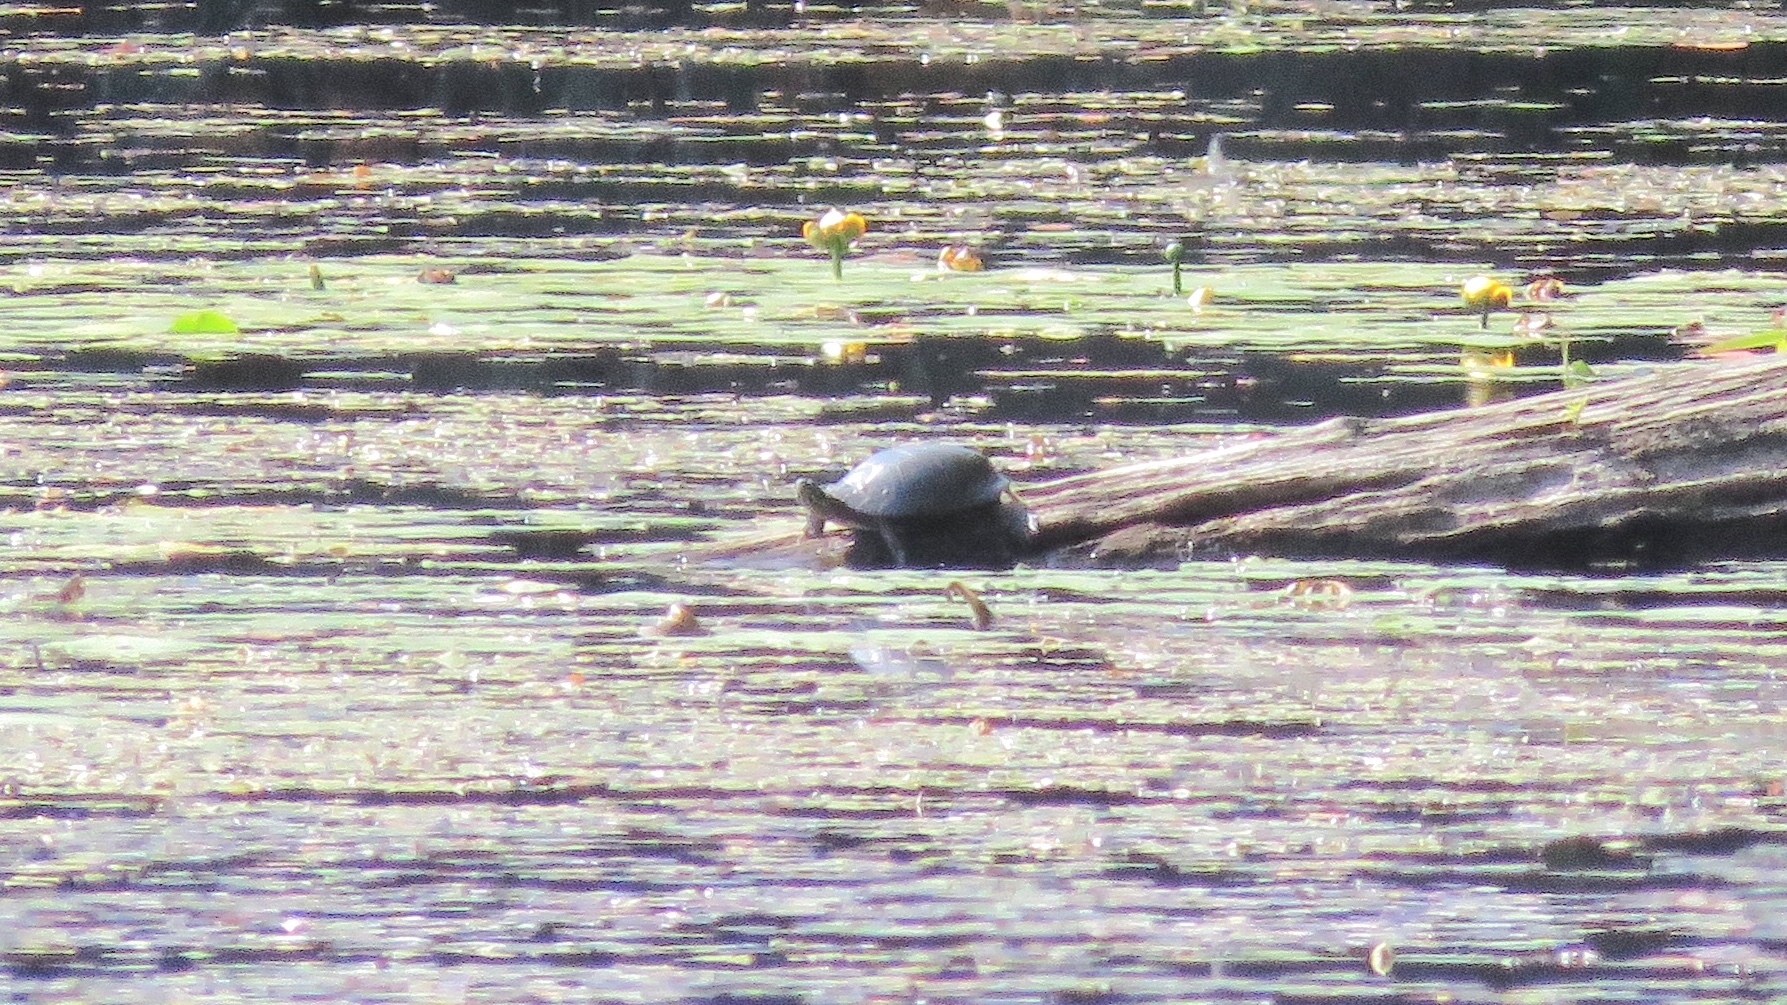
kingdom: Animalia
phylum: Chordata
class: Testudines
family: Emydidae
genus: Chrysemys
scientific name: Chrysemys picta
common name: Painted turtle
